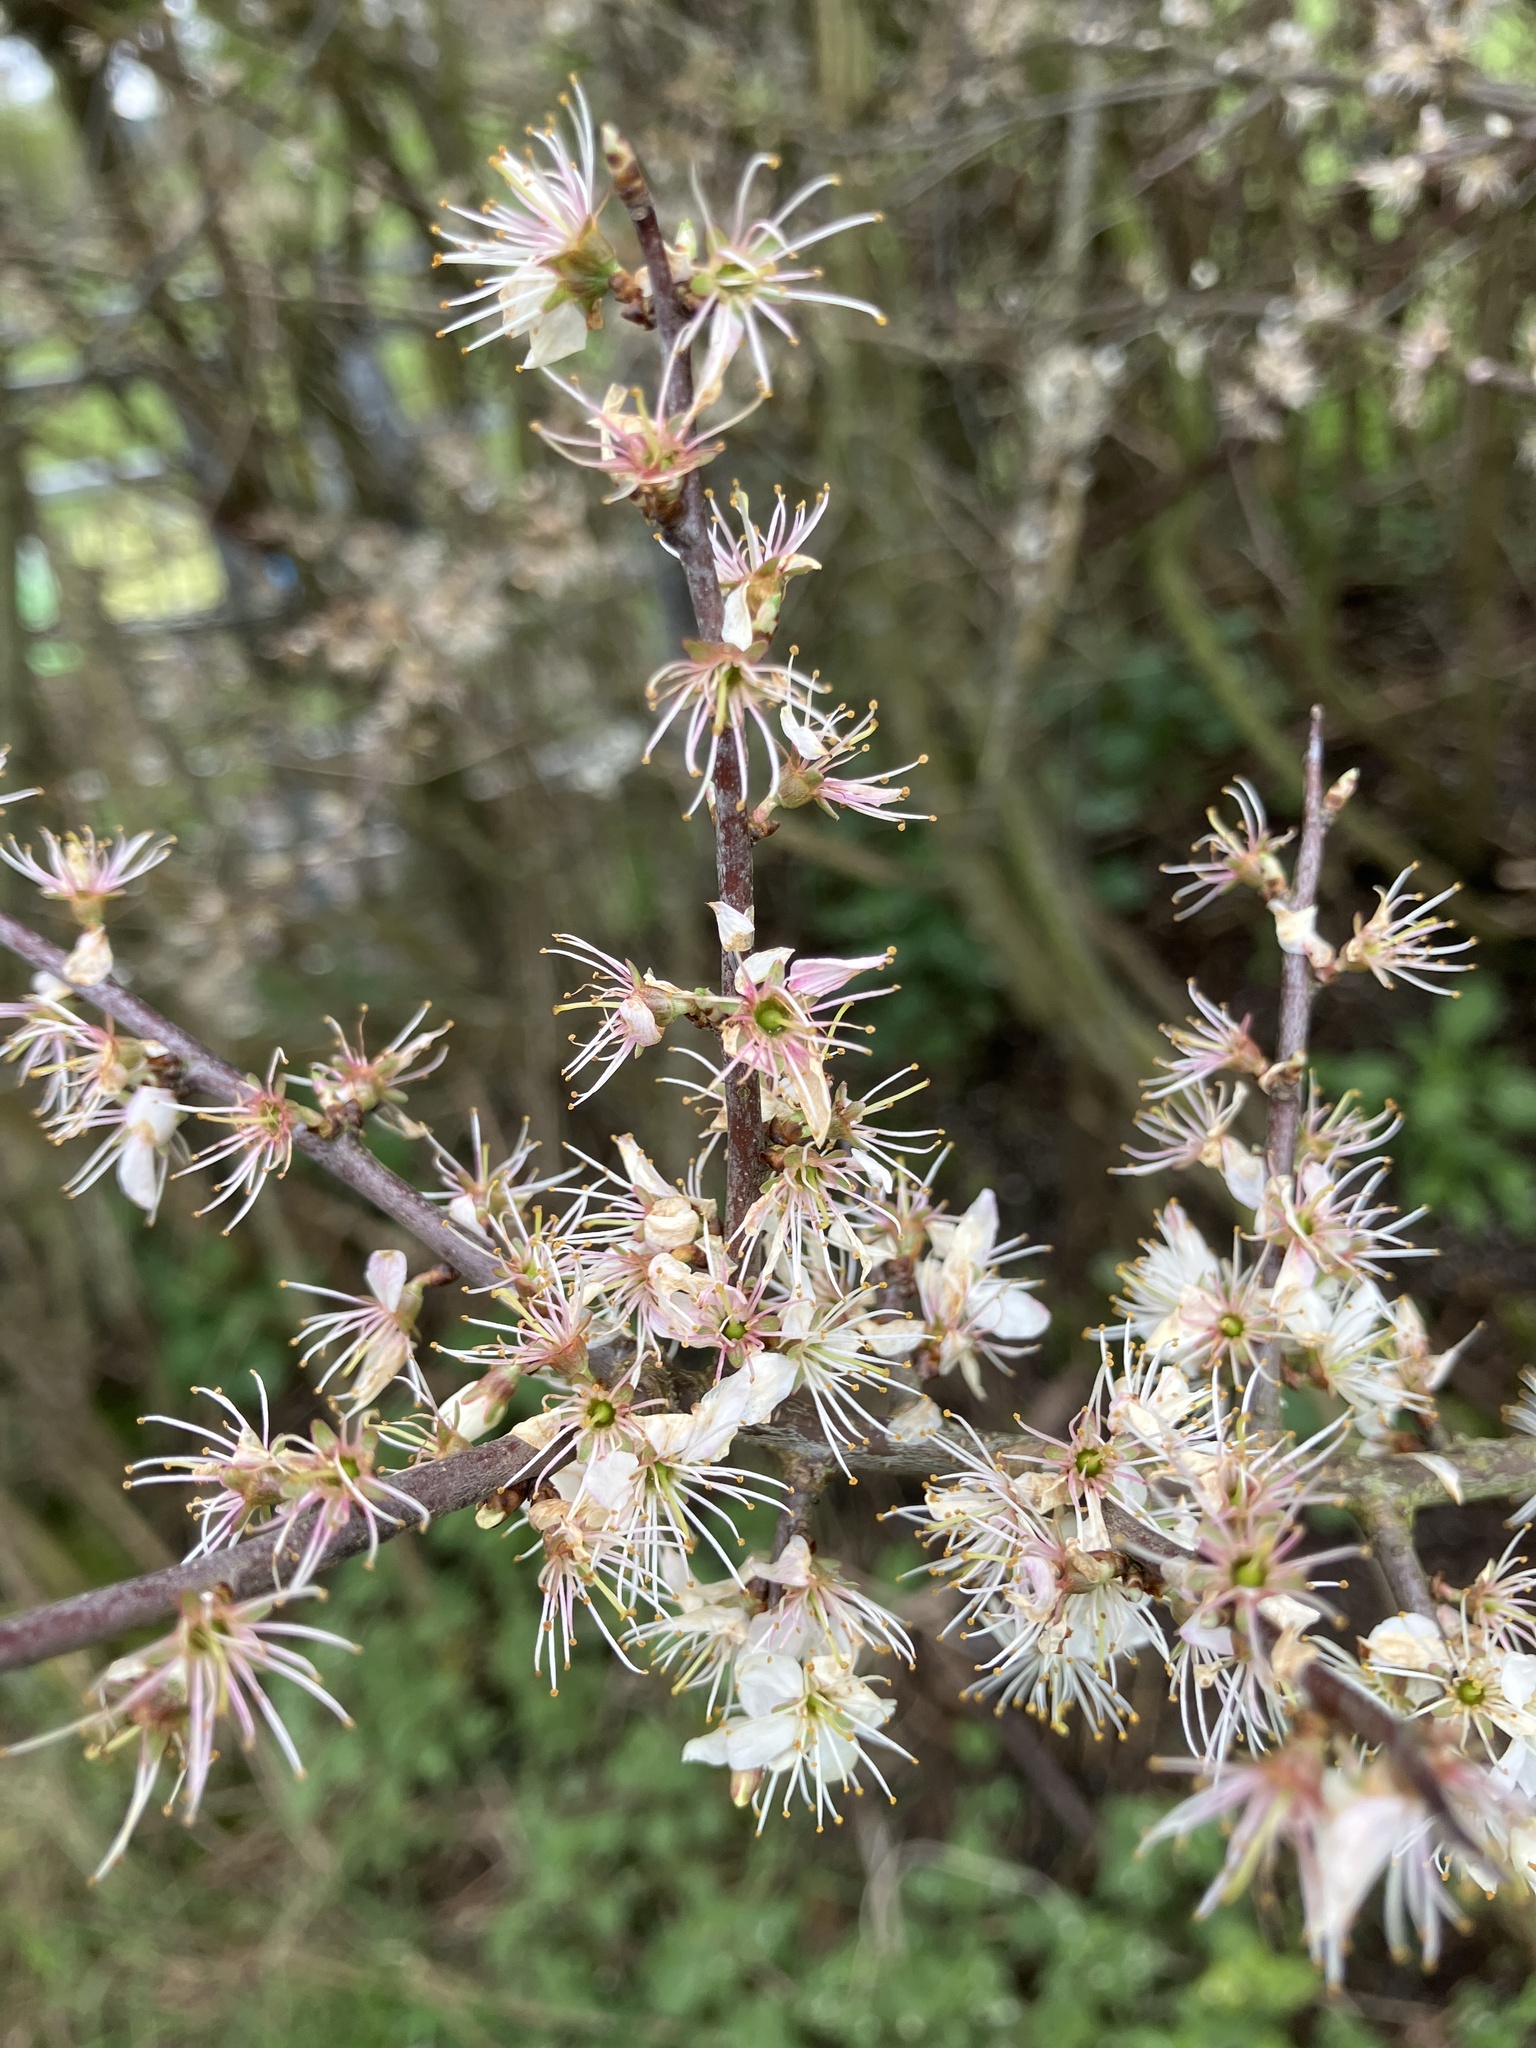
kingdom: Plantae
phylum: Tracheophyta
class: Magnoliopsida
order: Rosales
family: Rosaceae
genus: Prunus
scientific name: Prunus spinosa
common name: Blackthorn
